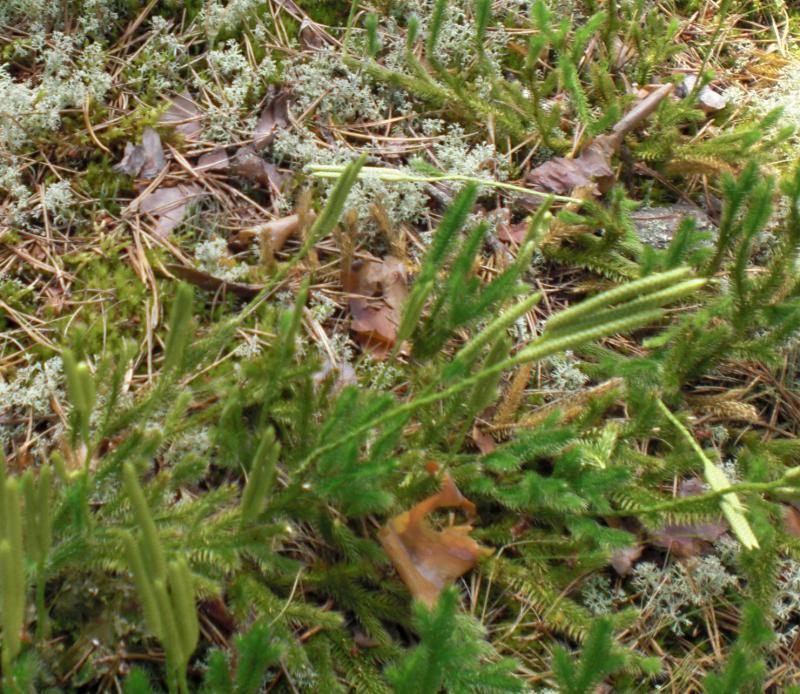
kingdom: Plantae
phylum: Tracheophyta
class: Lycopodiopsida
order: Lycopodiales
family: Lycopodiaceae
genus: Lycopodium
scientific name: Lycopodium clavatum
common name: Stag's-horn clubmoss
